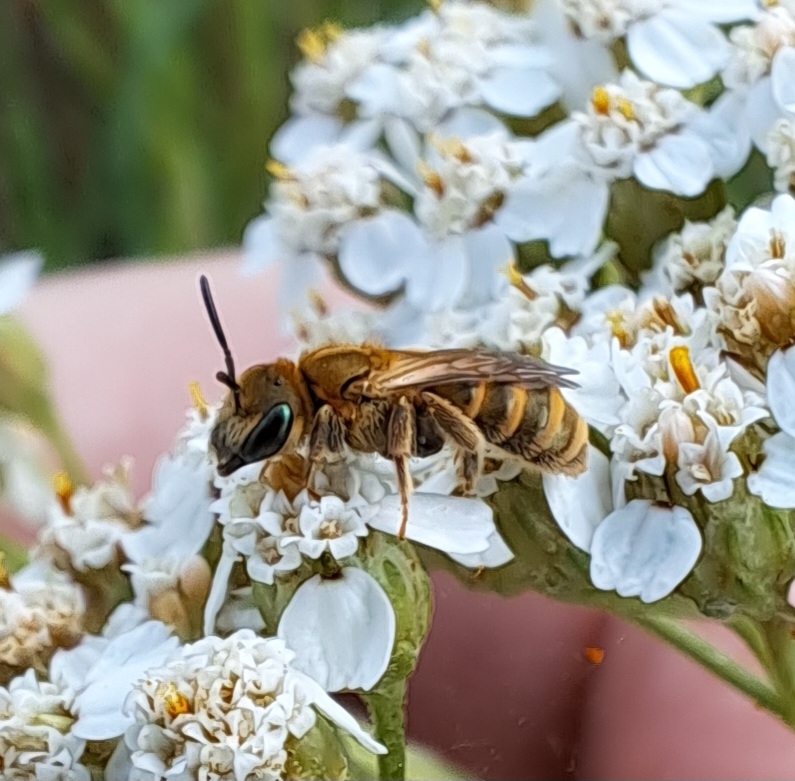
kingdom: Animalia
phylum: Arthropoda
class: Insecta
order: Hymenoptera
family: Halictidae
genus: Halictus
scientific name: Halictus subauratus
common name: Golden furrow bee
